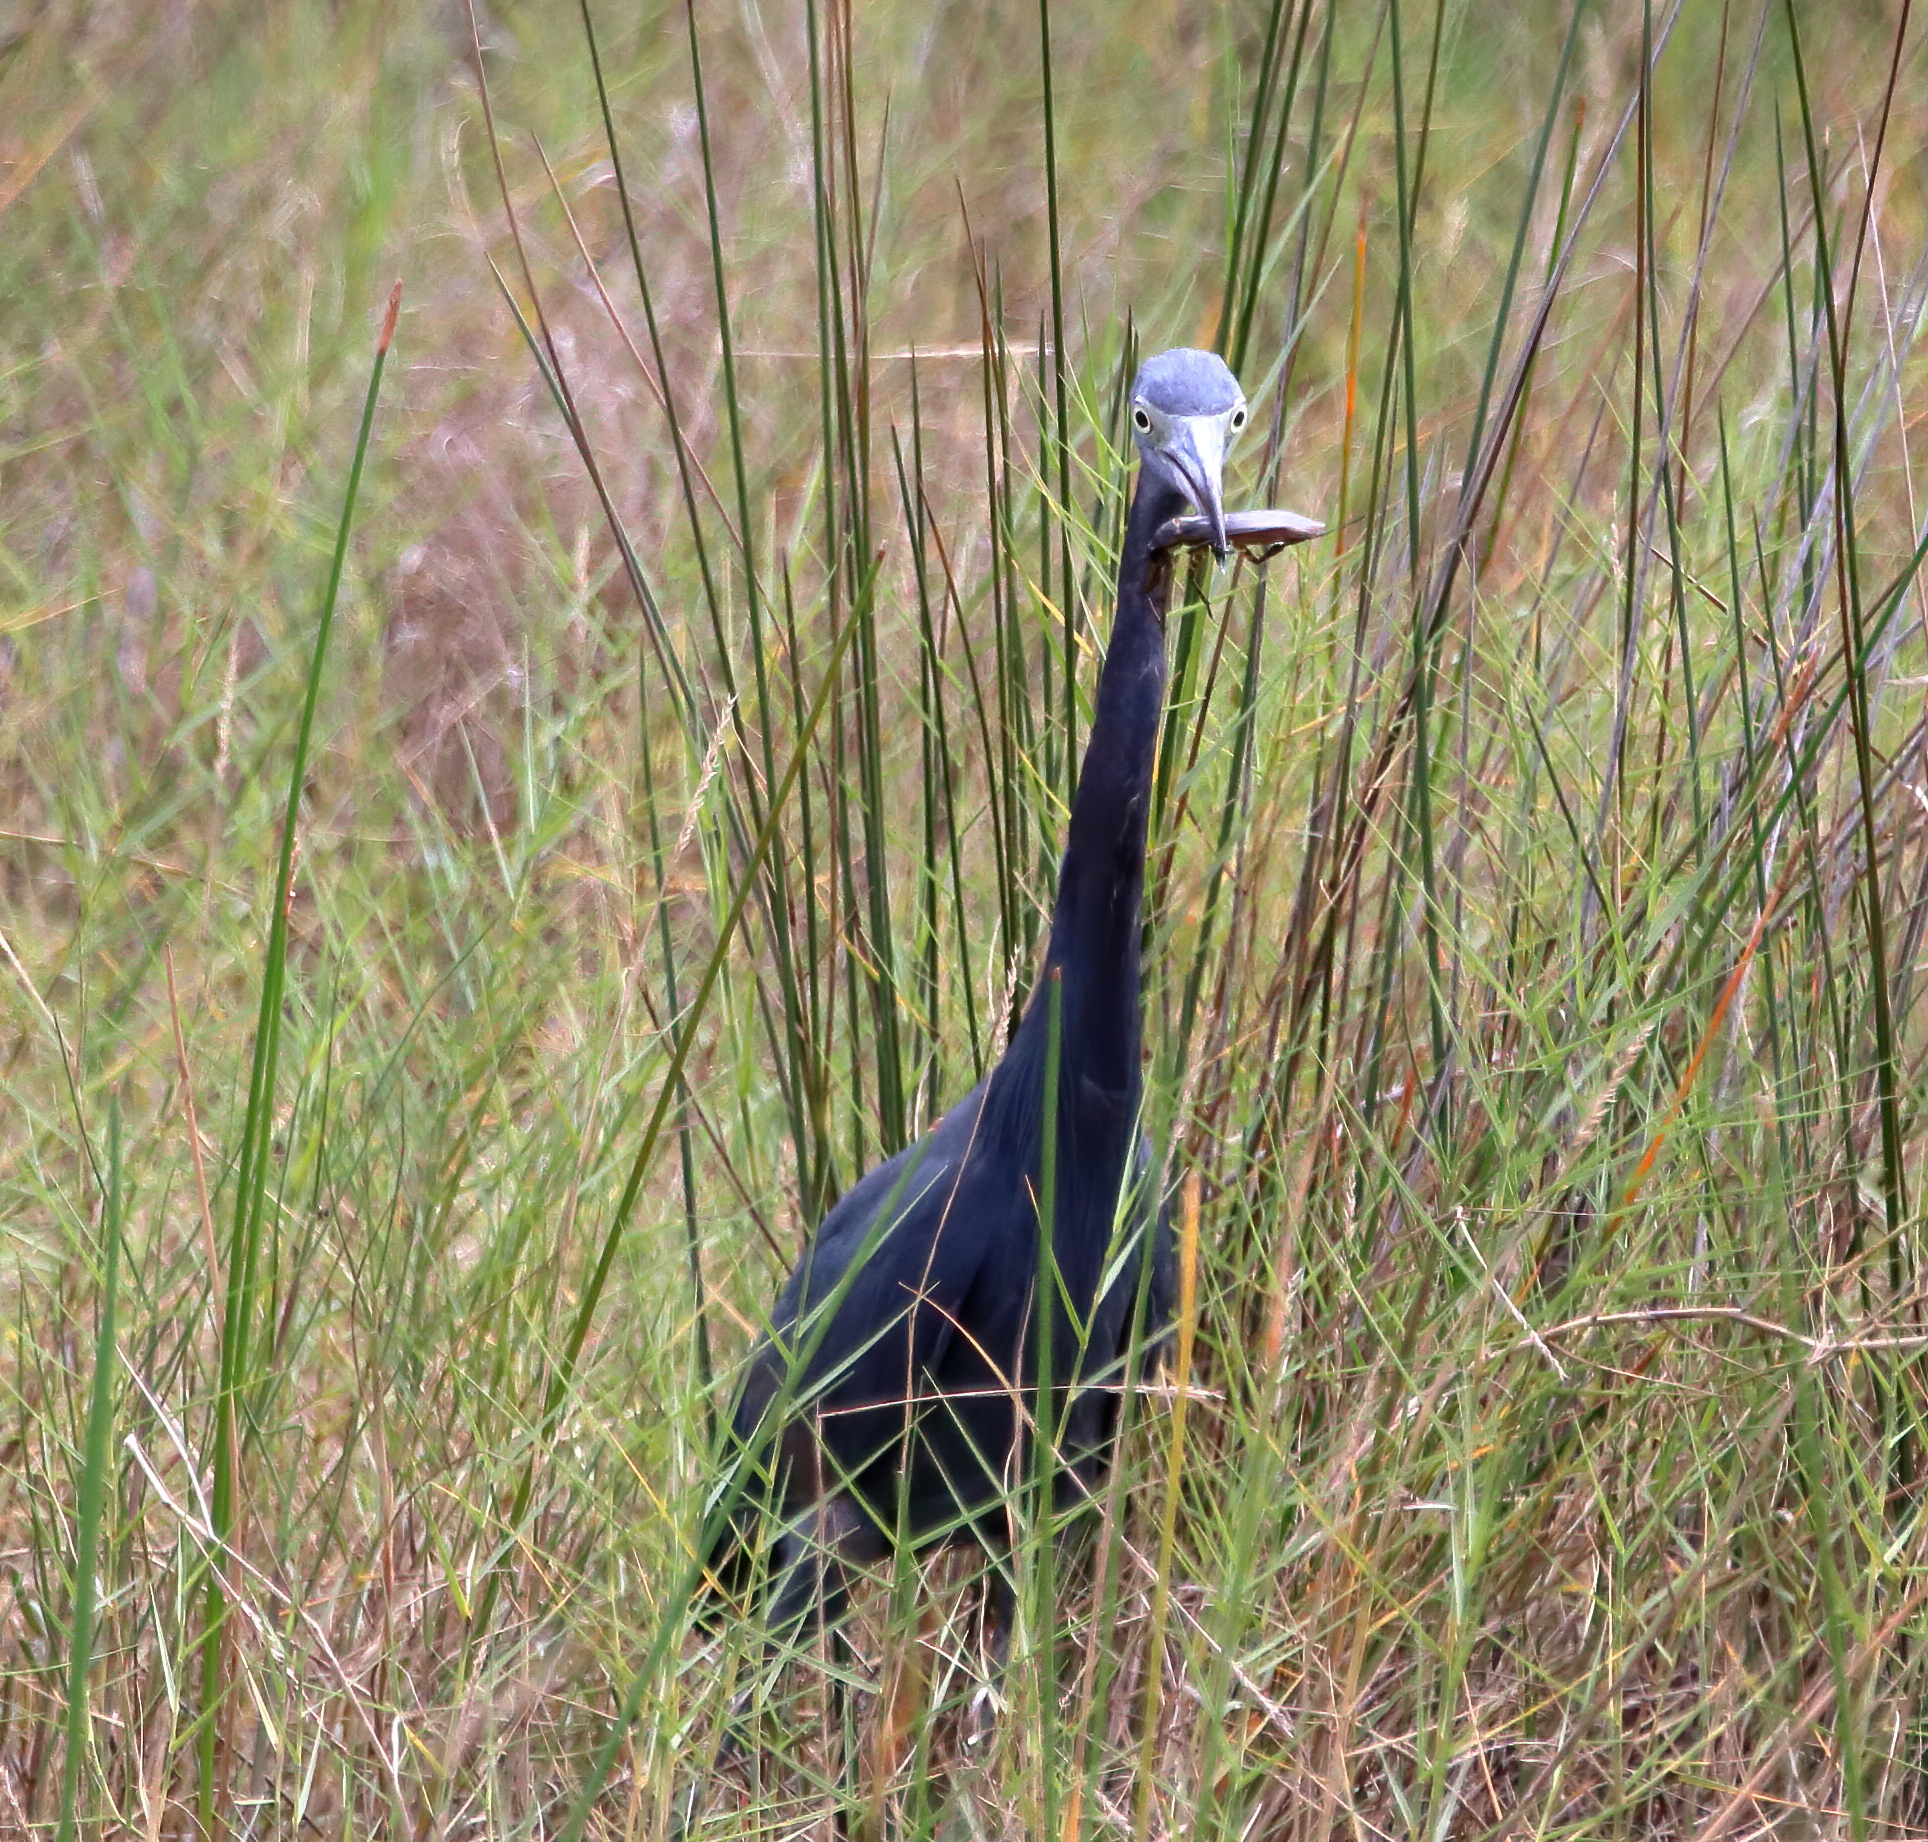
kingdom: Animalia
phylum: Chordata
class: Aves
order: Pelecaniformes
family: Ardeidae
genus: Egretta
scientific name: Egretta caerulea
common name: Little blue heron
